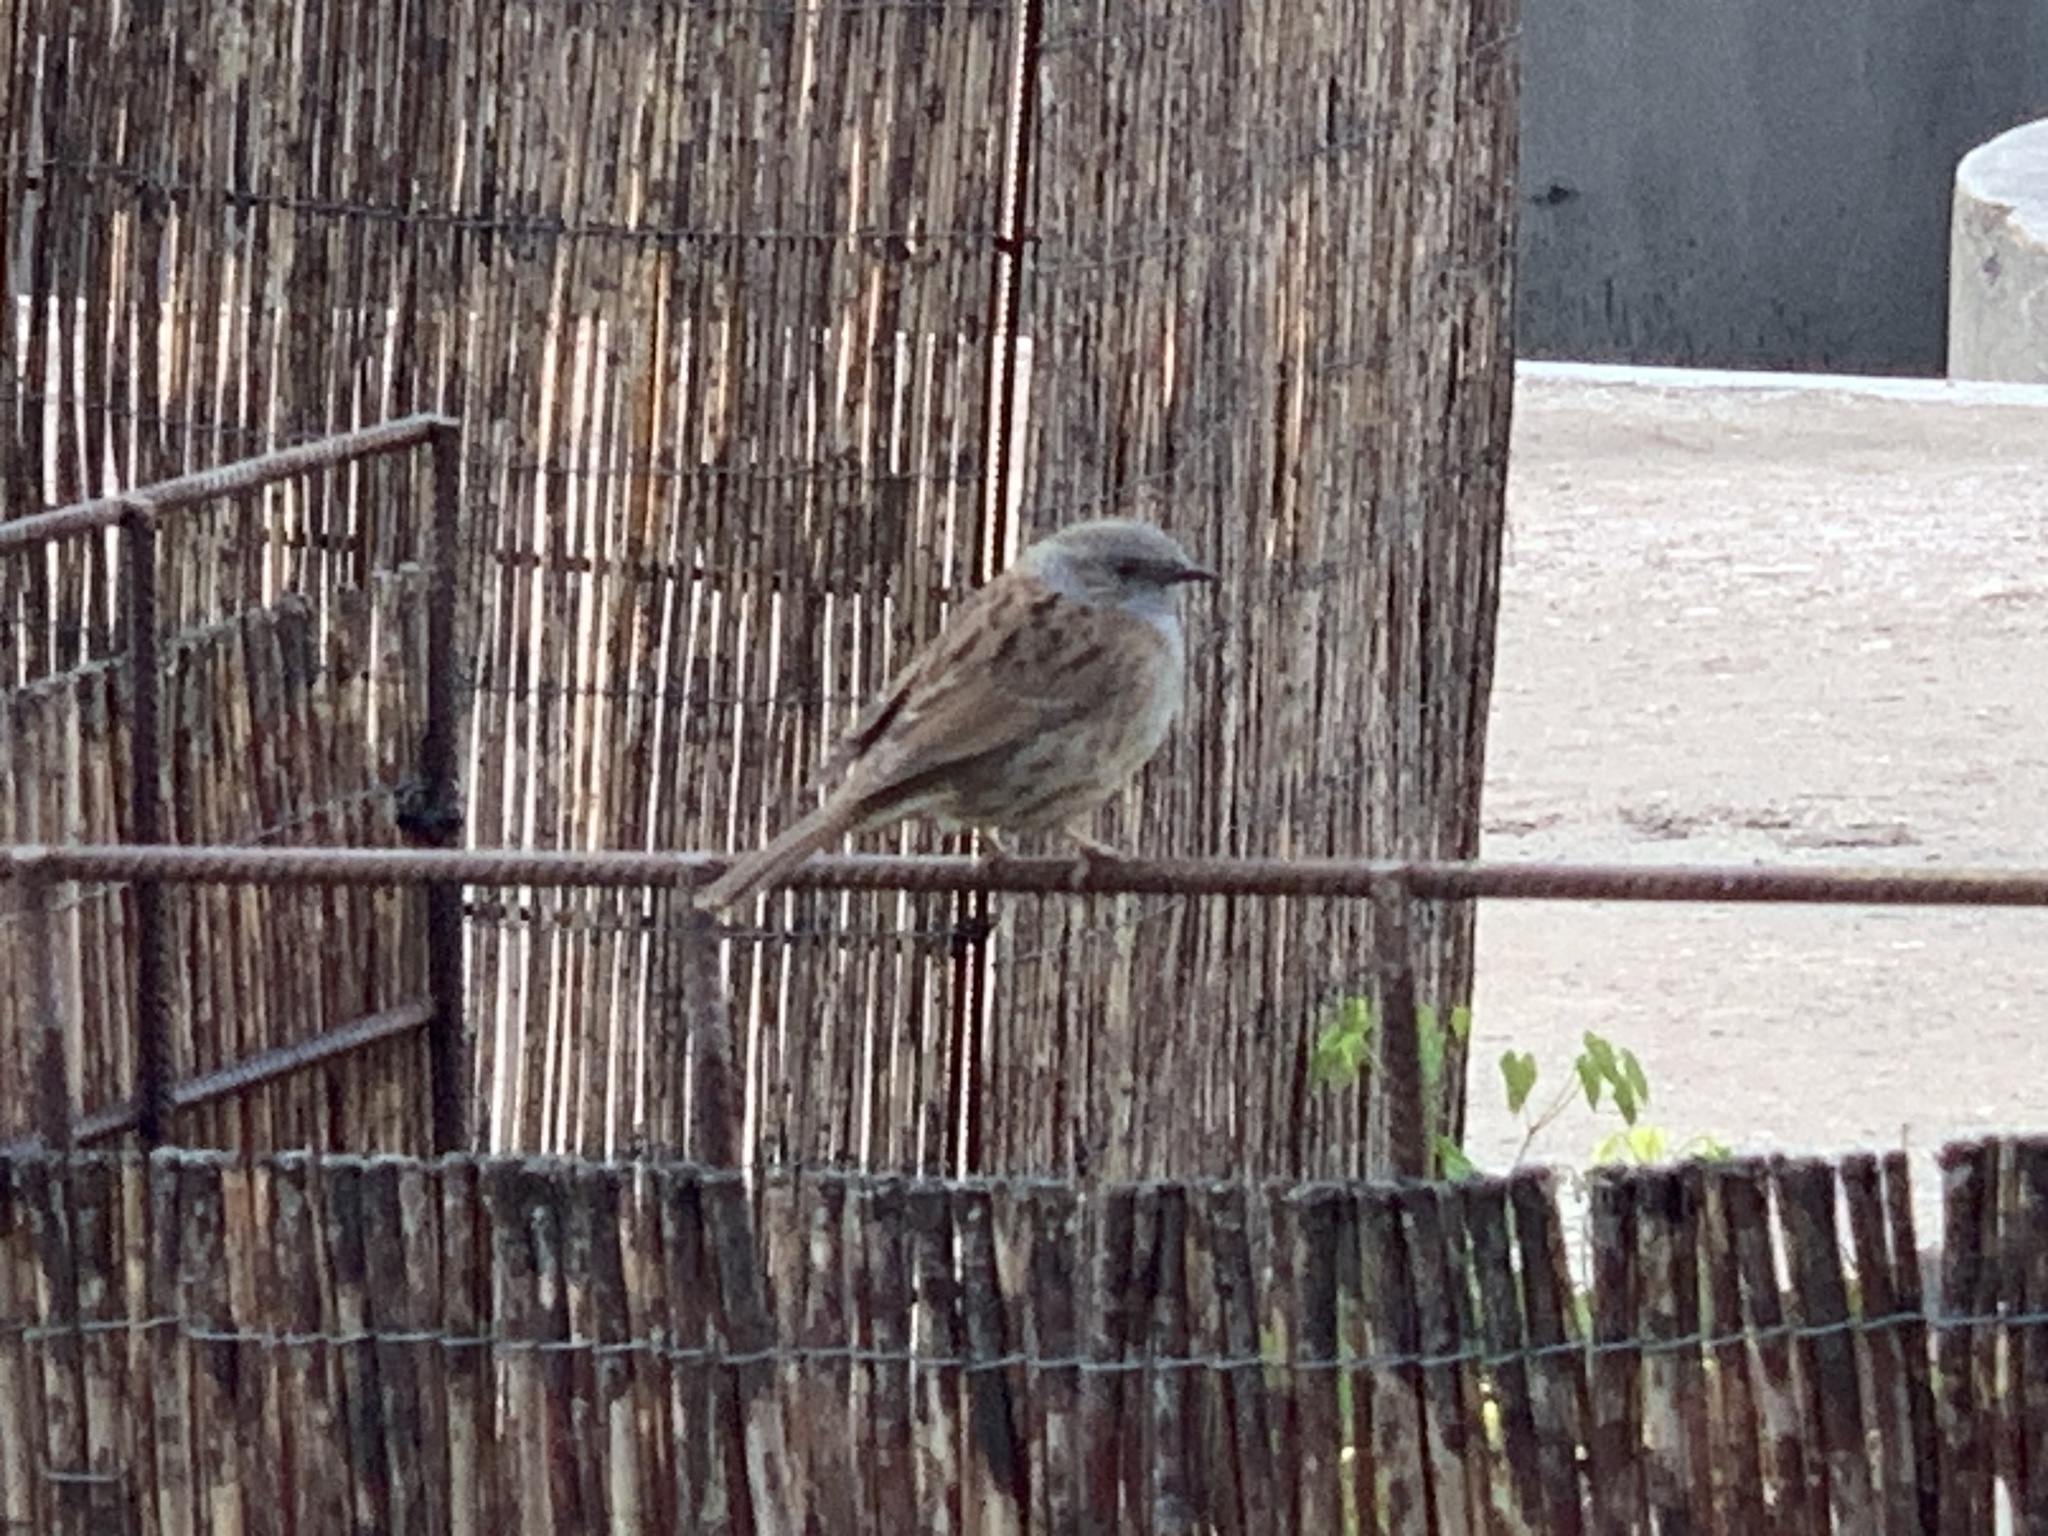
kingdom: Animalia
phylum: Chordata
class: Aves
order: Passeriformes
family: Prunellidae
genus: Prunella
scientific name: Prunella modularis
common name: Dunnock
